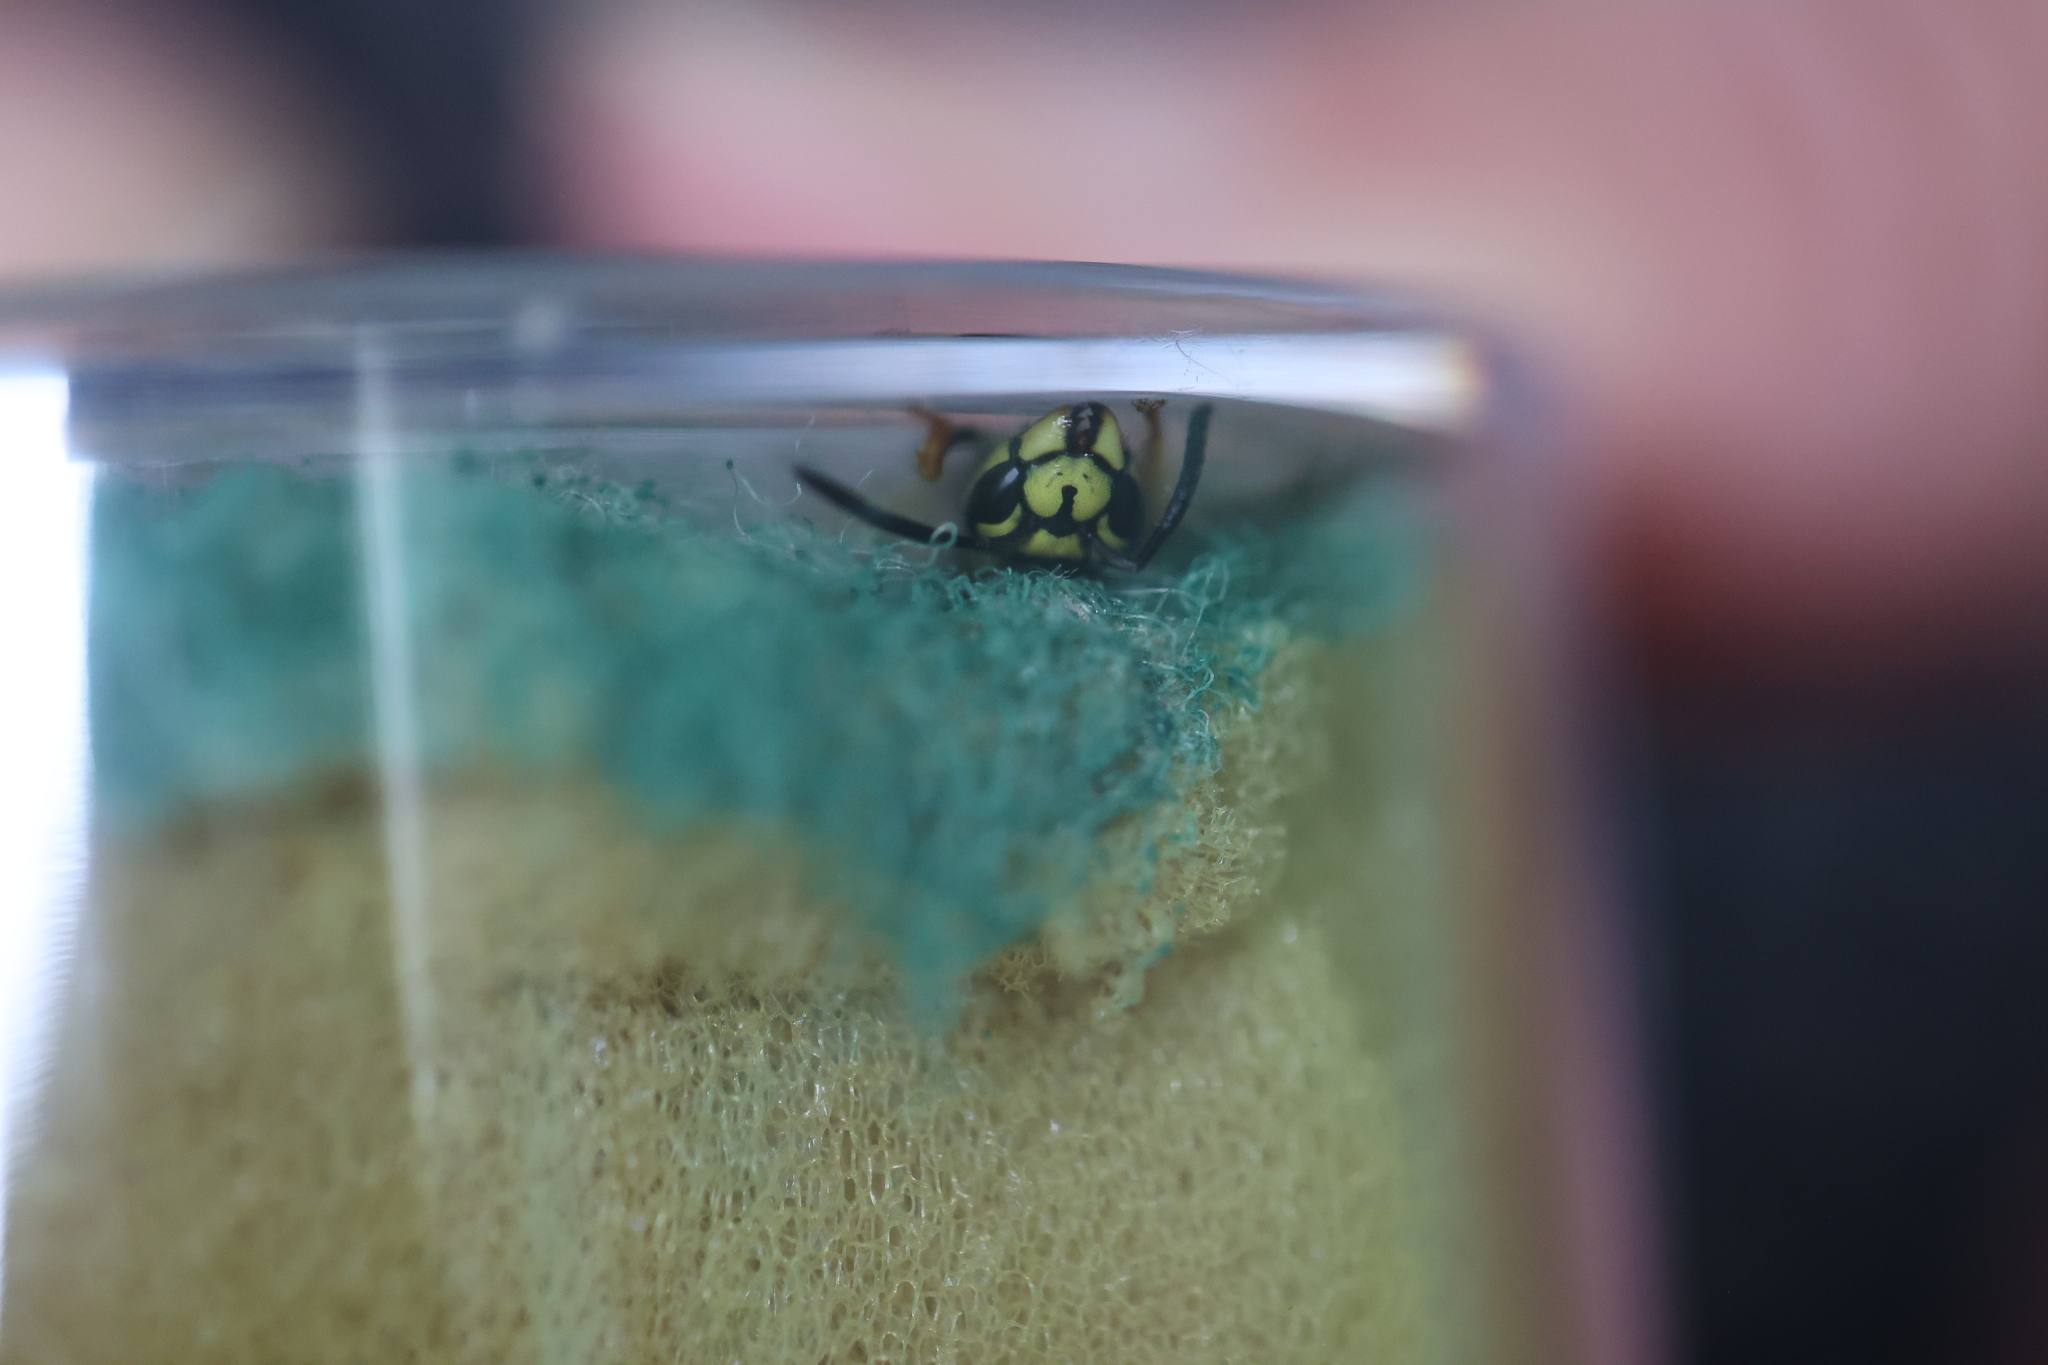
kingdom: Animalia
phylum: Arthropoda
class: Insecta
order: Hymenoptera
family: Vespidae
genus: Vespula
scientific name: Vespula germanica
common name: German wasp
